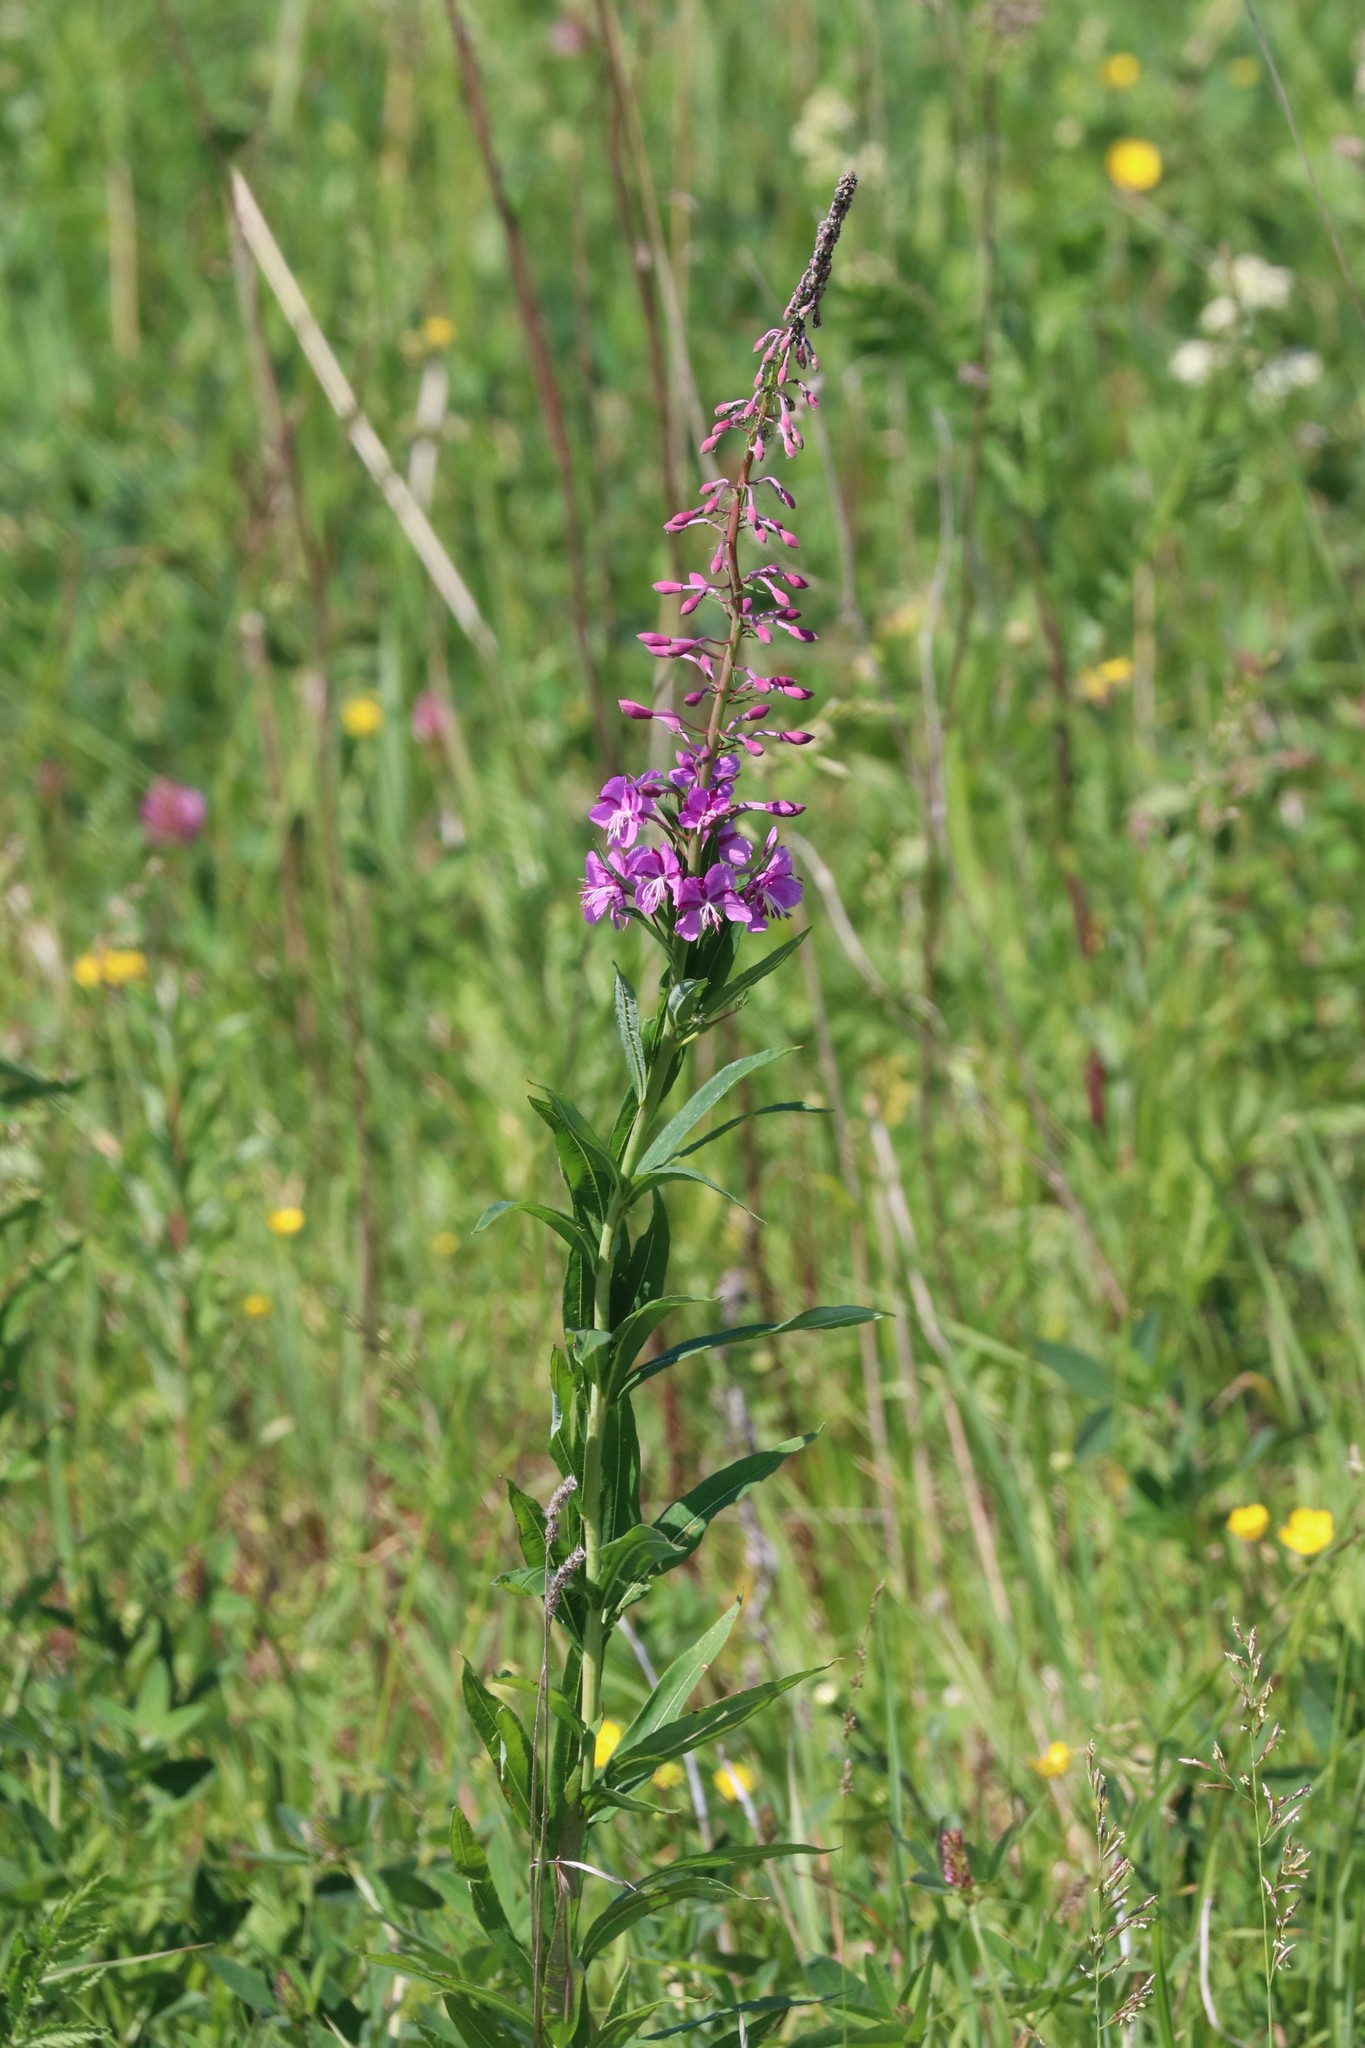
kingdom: Plantae
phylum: Tracheophyta
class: Magnoliopsida
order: Myrtales
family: Onagraceae
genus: Chamaenerion
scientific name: Chamaenerion angustifolium
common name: Fireweed
